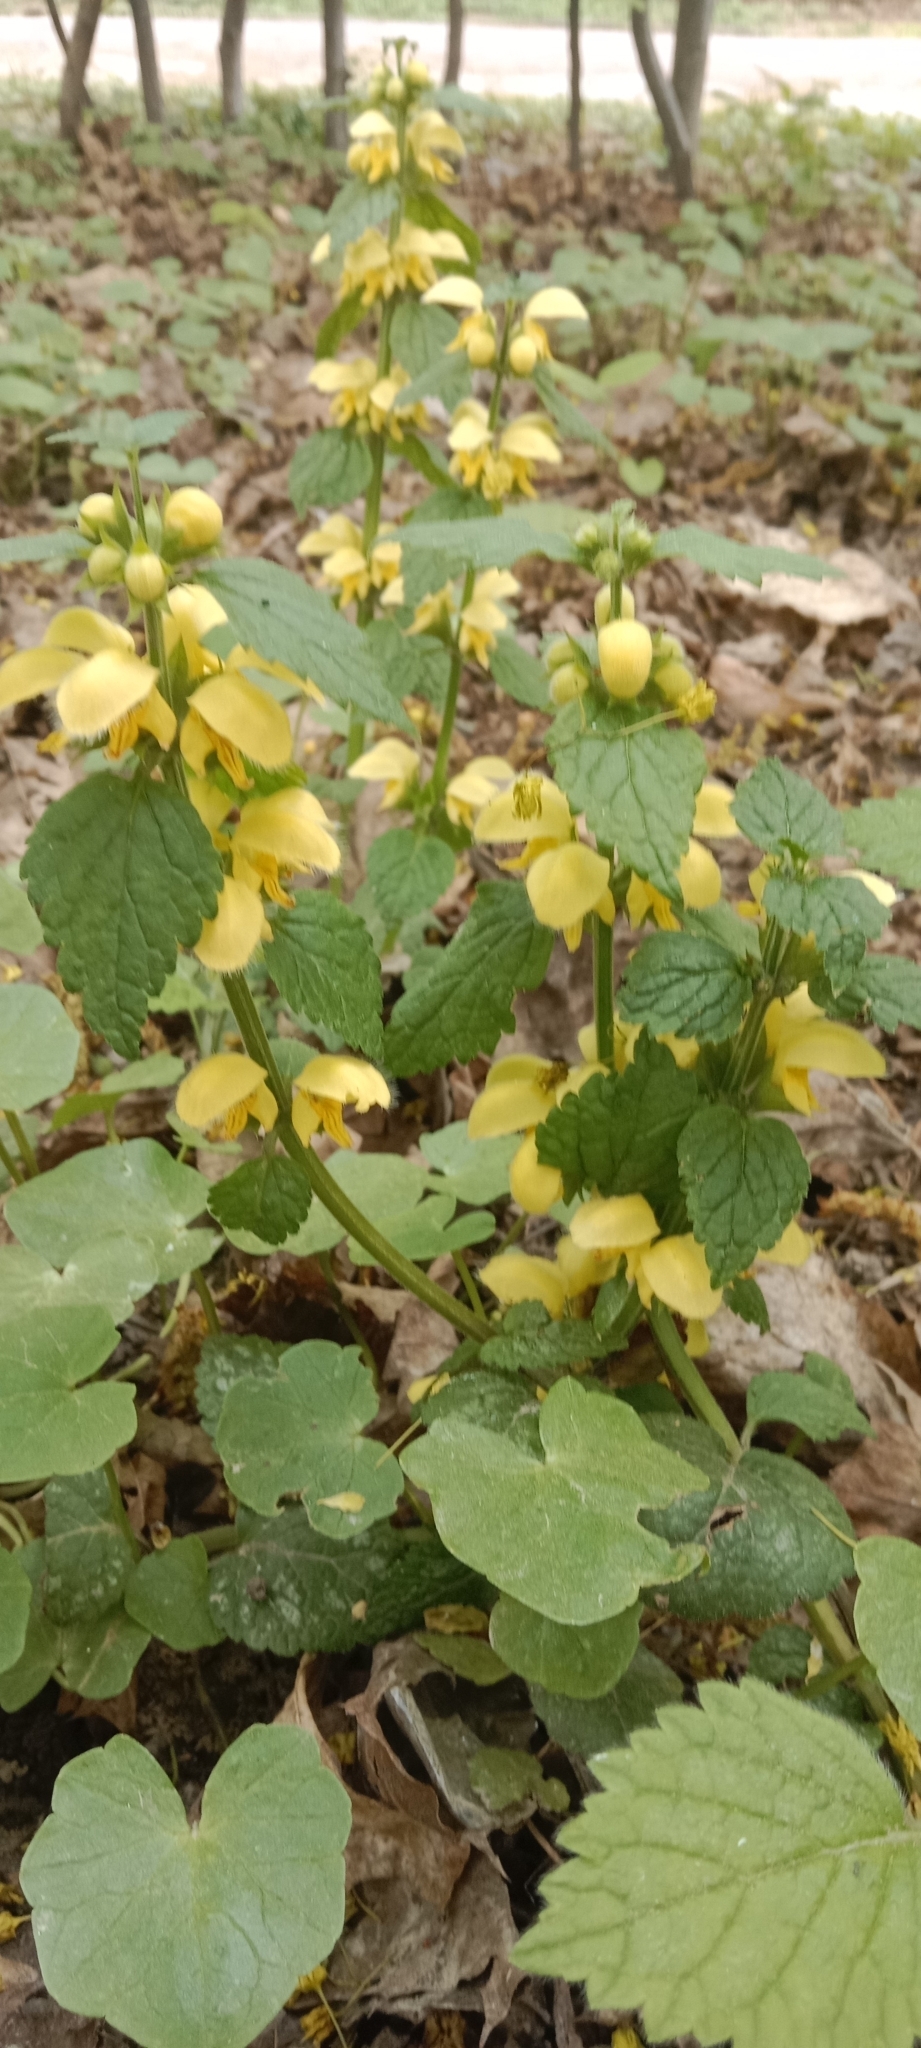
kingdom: Plantae
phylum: Tracheophyta
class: Magnoliopsida
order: Lamiales
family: Lamiaceae
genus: Lamium
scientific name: Lamium galeobdolon
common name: Yellow archangel
